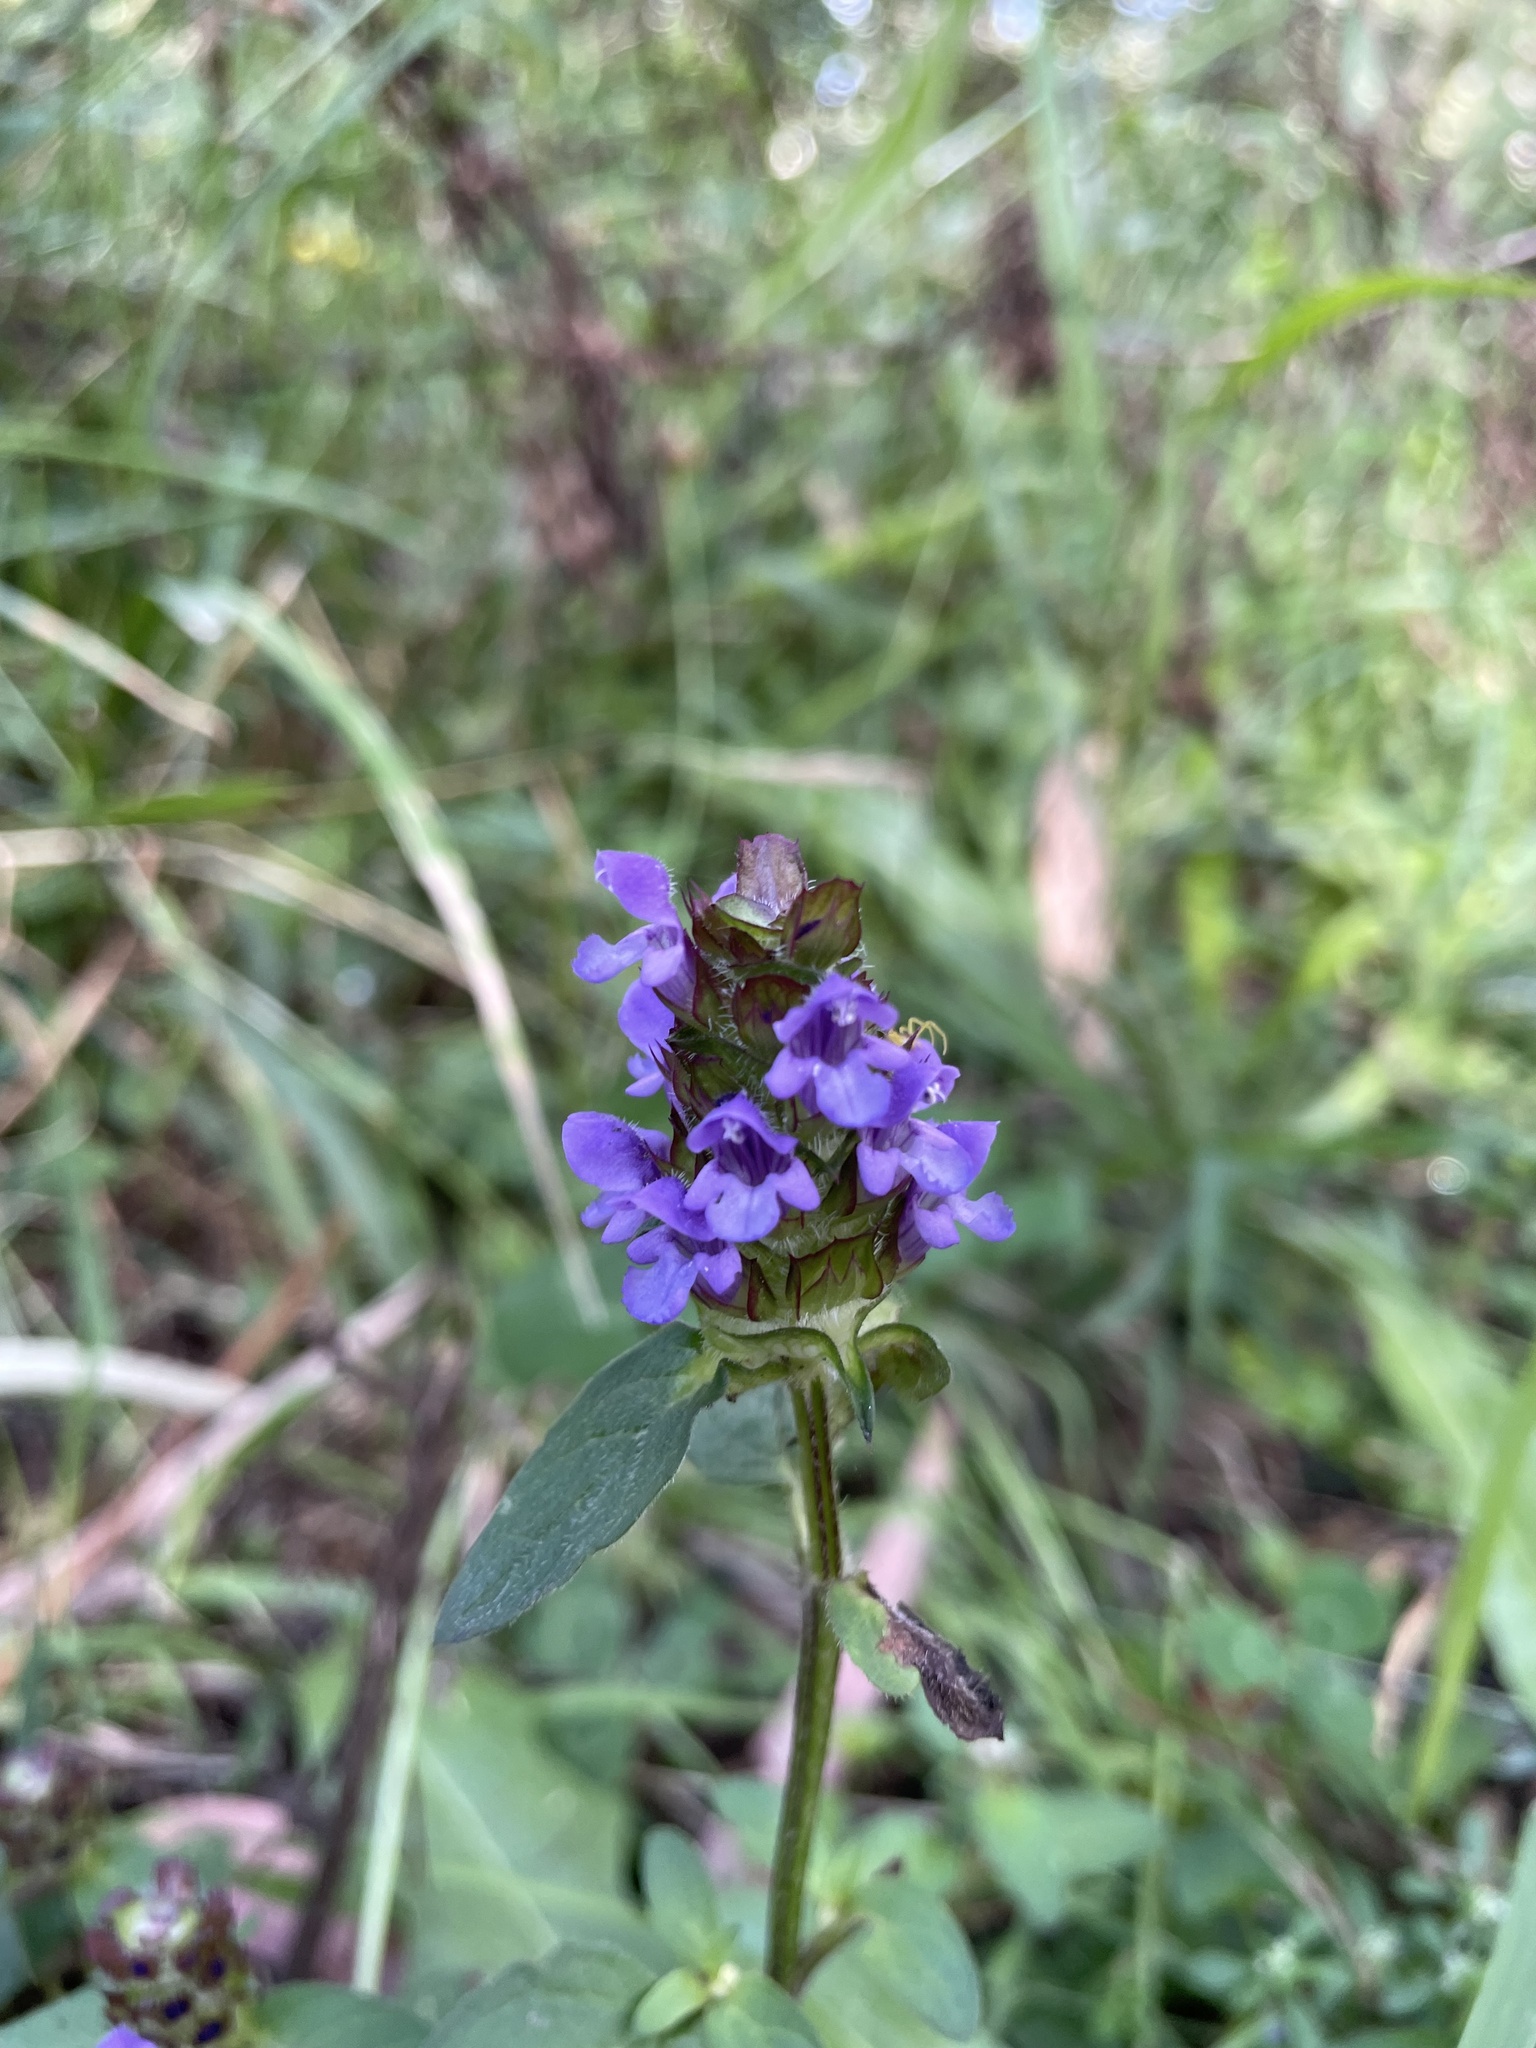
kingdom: Plantae
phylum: Tracheophyta
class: Magnoliopsida
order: Lamiales
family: Lamiaceae
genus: Prunella
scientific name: Prunella vulgaris
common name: Heal-all
